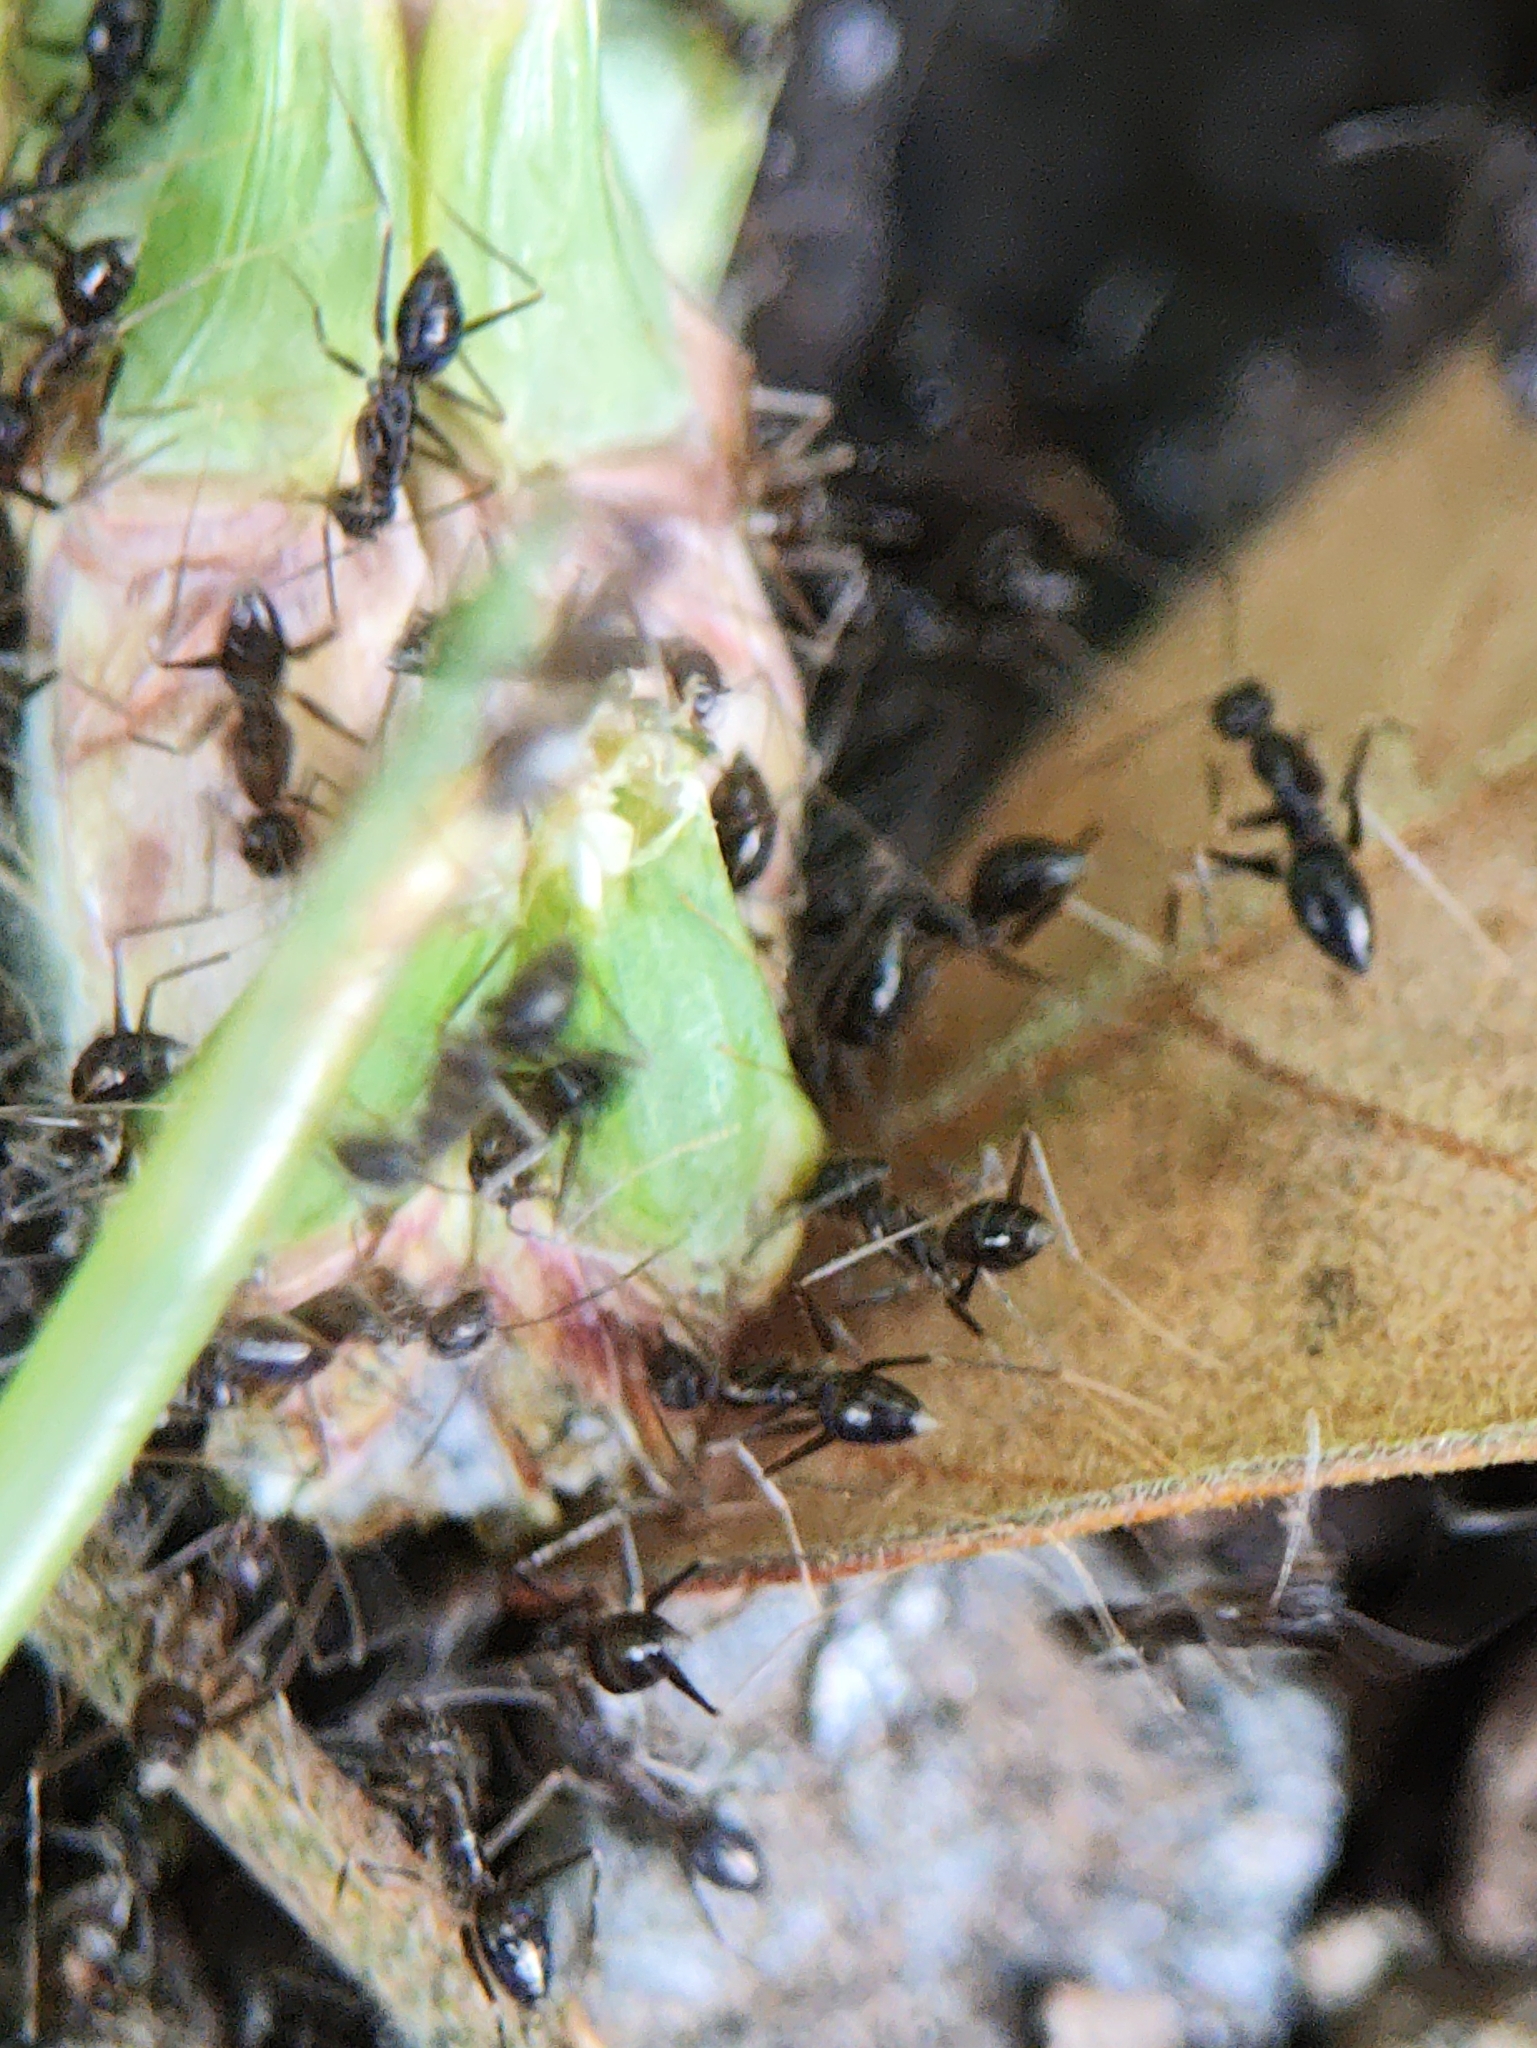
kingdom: Animalia
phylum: Arthropoda
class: Insecta
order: Hymenoptera
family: Formicidae
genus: Paratrechina
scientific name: Paratrechina longicornis
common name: Longhorned crazy ant
